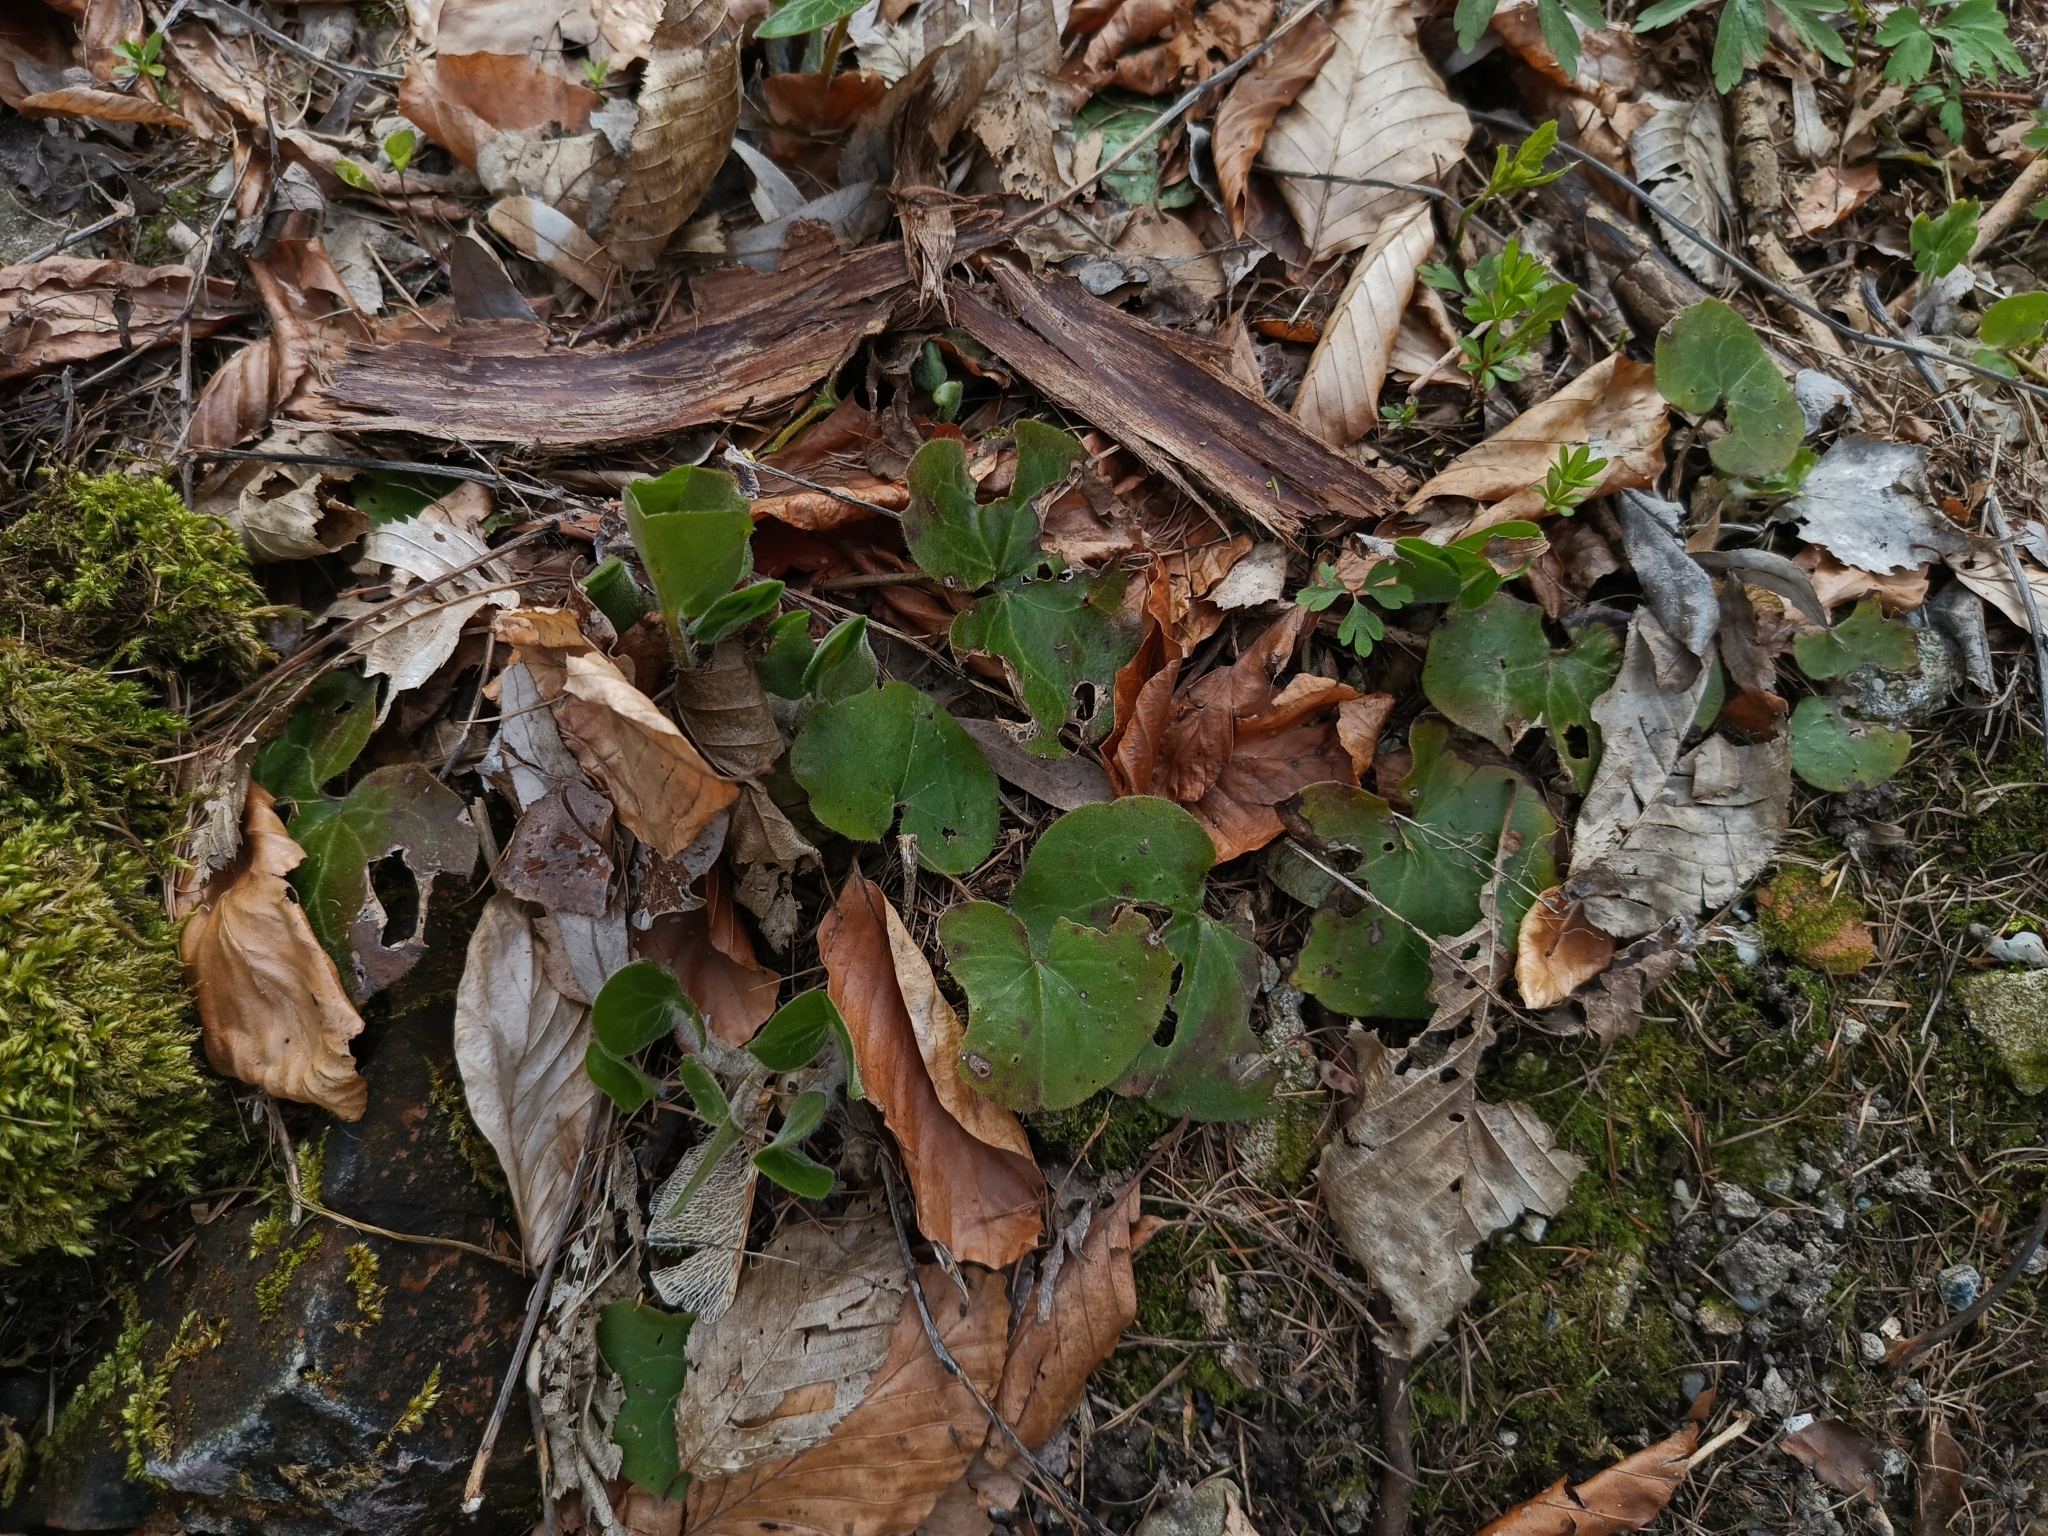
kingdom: Plantae
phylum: Tracheophyta
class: Magnoliopsida
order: Piperales
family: Aristolochiaceae
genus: Asarum
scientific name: Asarum europaeum
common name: Asarabacca
